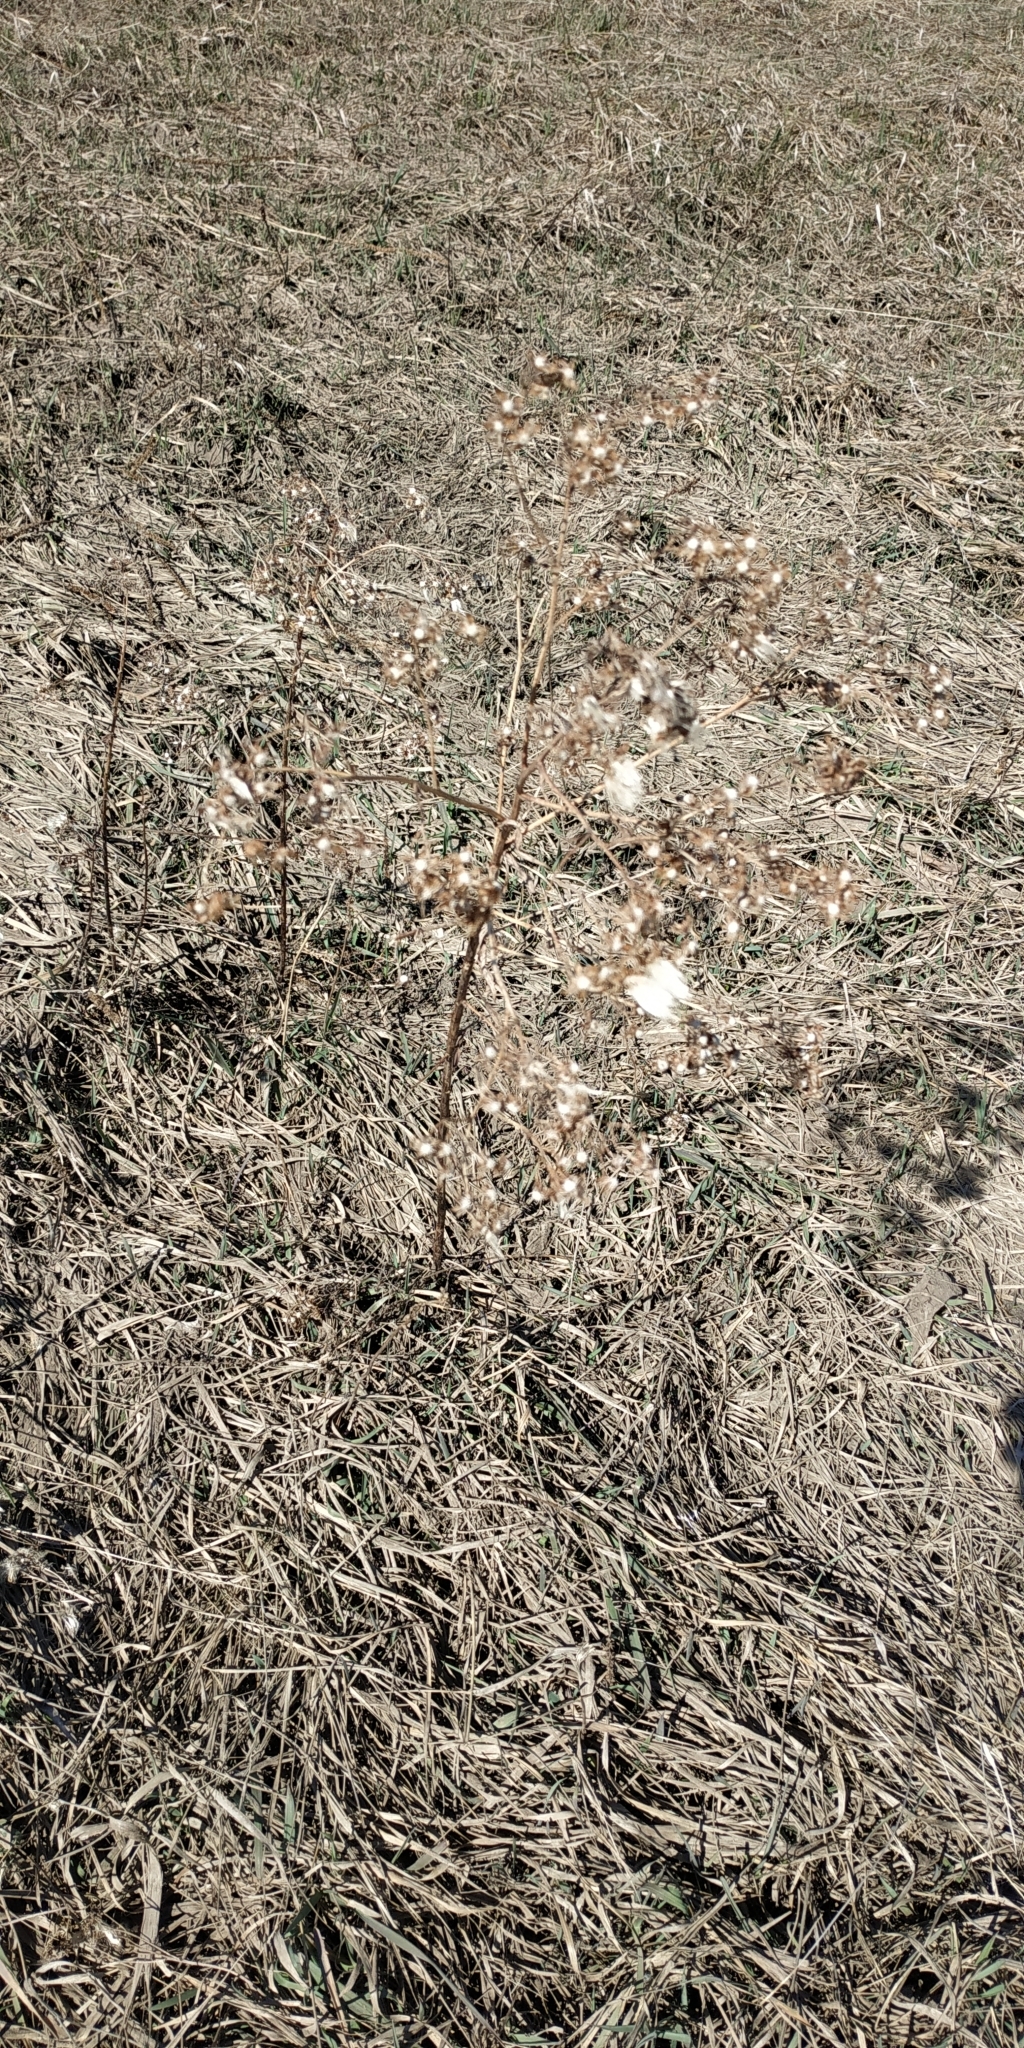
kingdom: Plantae
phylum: Tracheophyta
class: Magnoliopsida
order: Asterales
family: Asteraceae
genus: Tripolium
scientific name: Tripolium pannonicum
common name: Sea aster
